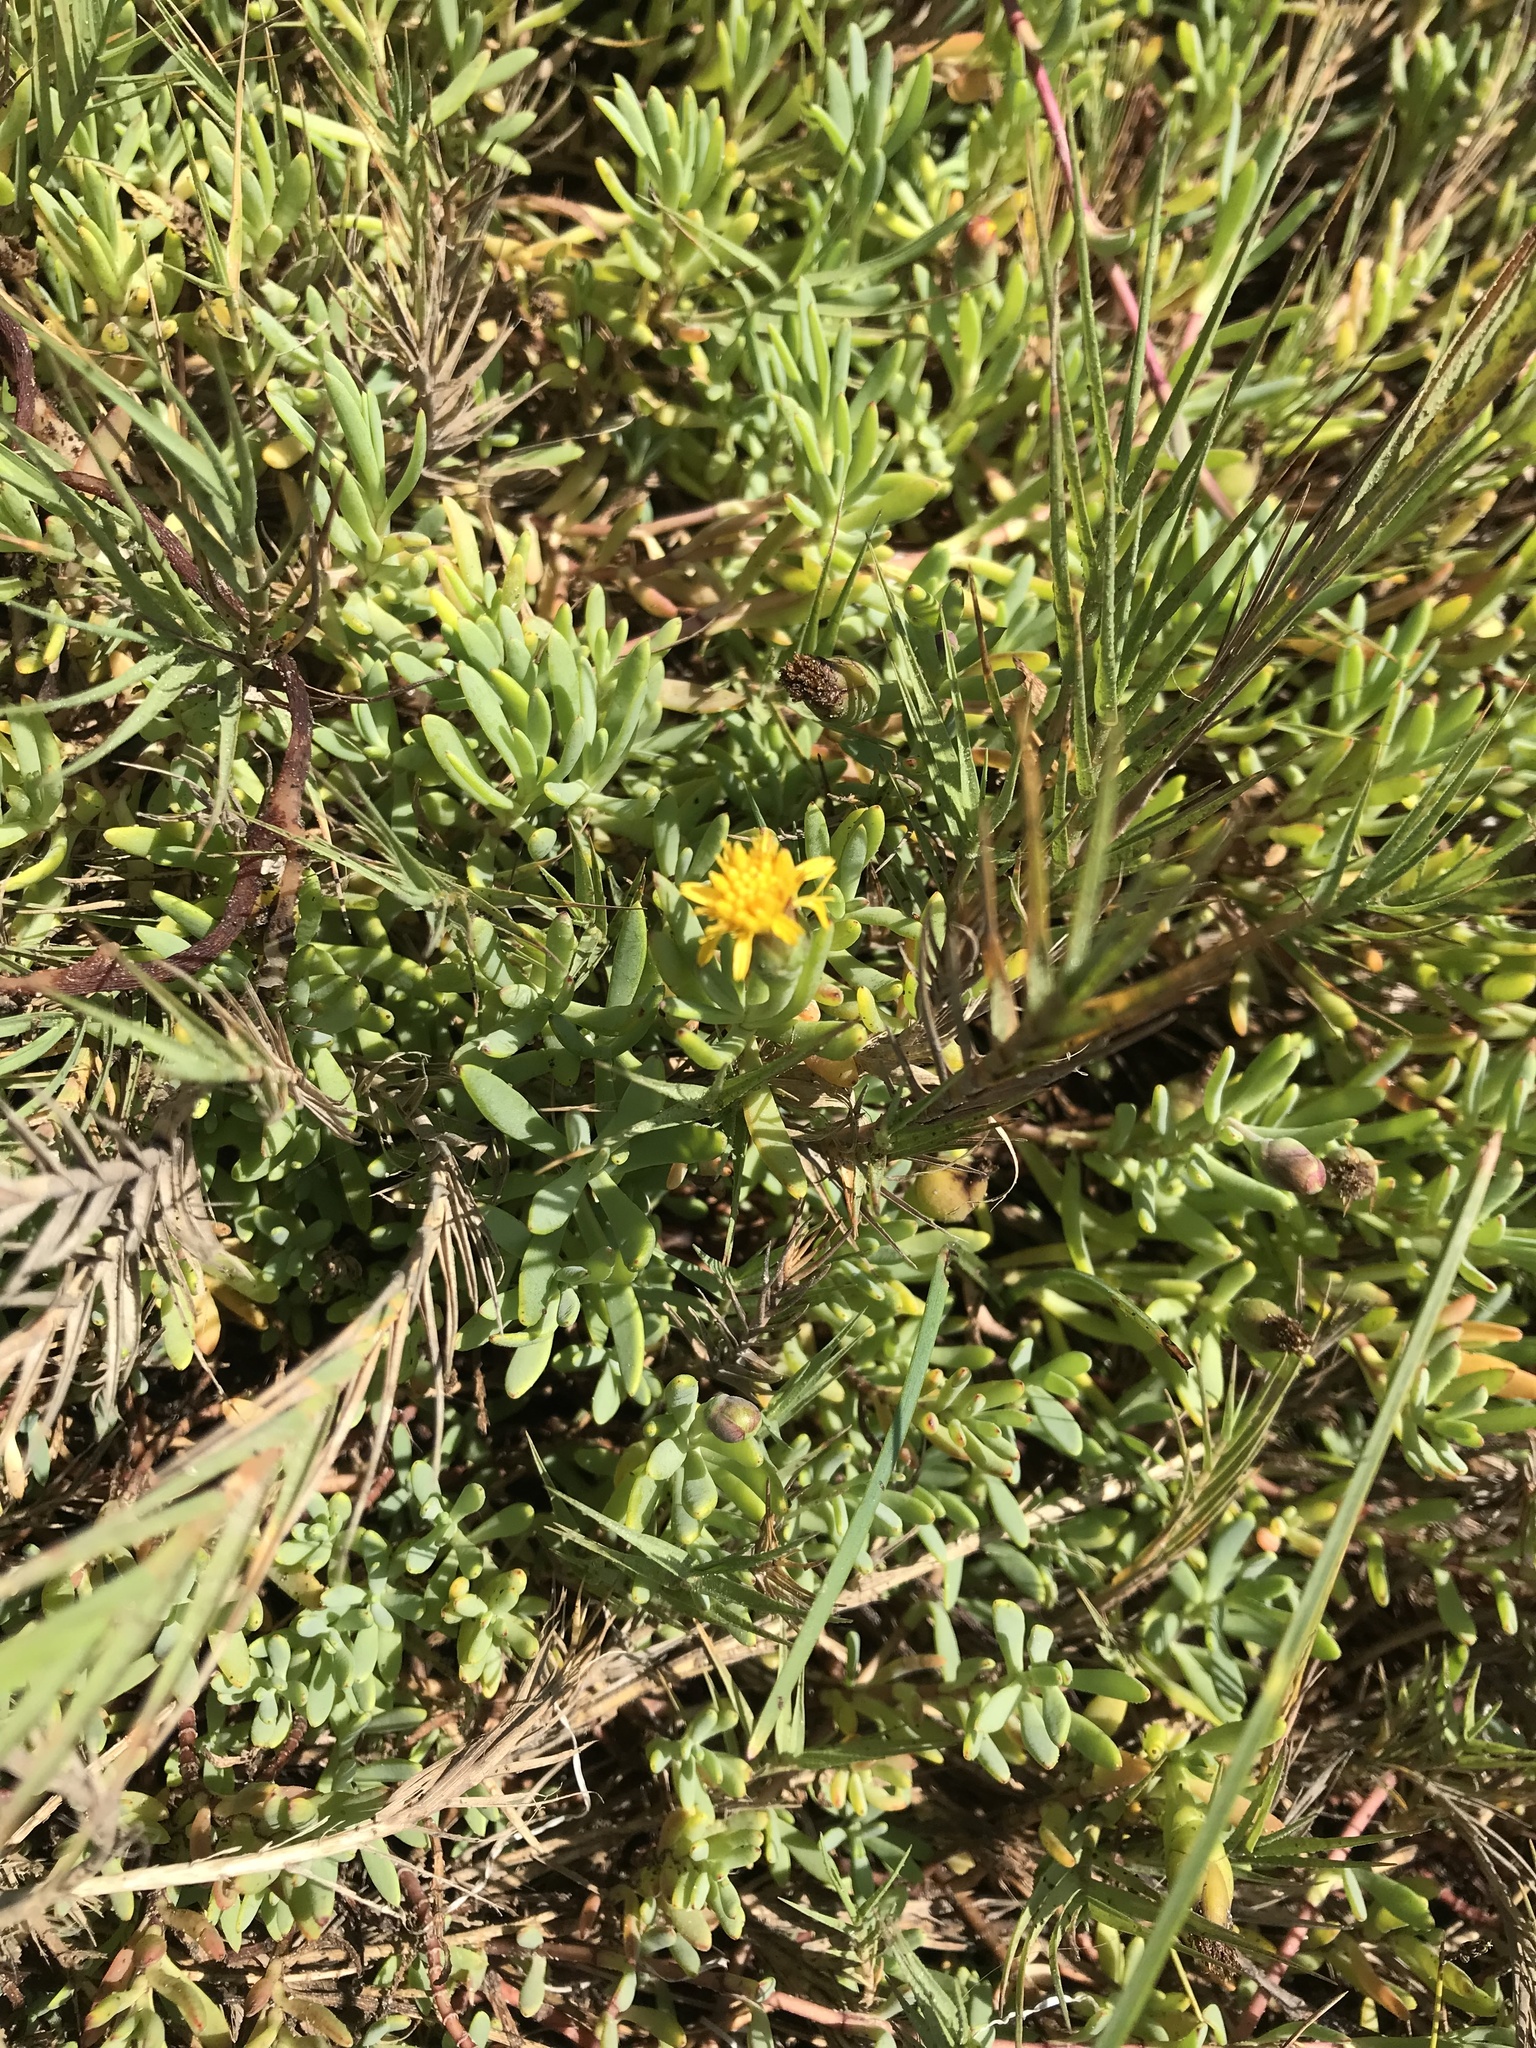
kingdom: Plantae
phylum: Tracheophyta
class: Magnoliopsida
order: Asterales
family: Asteraceae
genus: Jaumea
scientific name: Jaumea carnosa
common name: Fleshy jaumea
